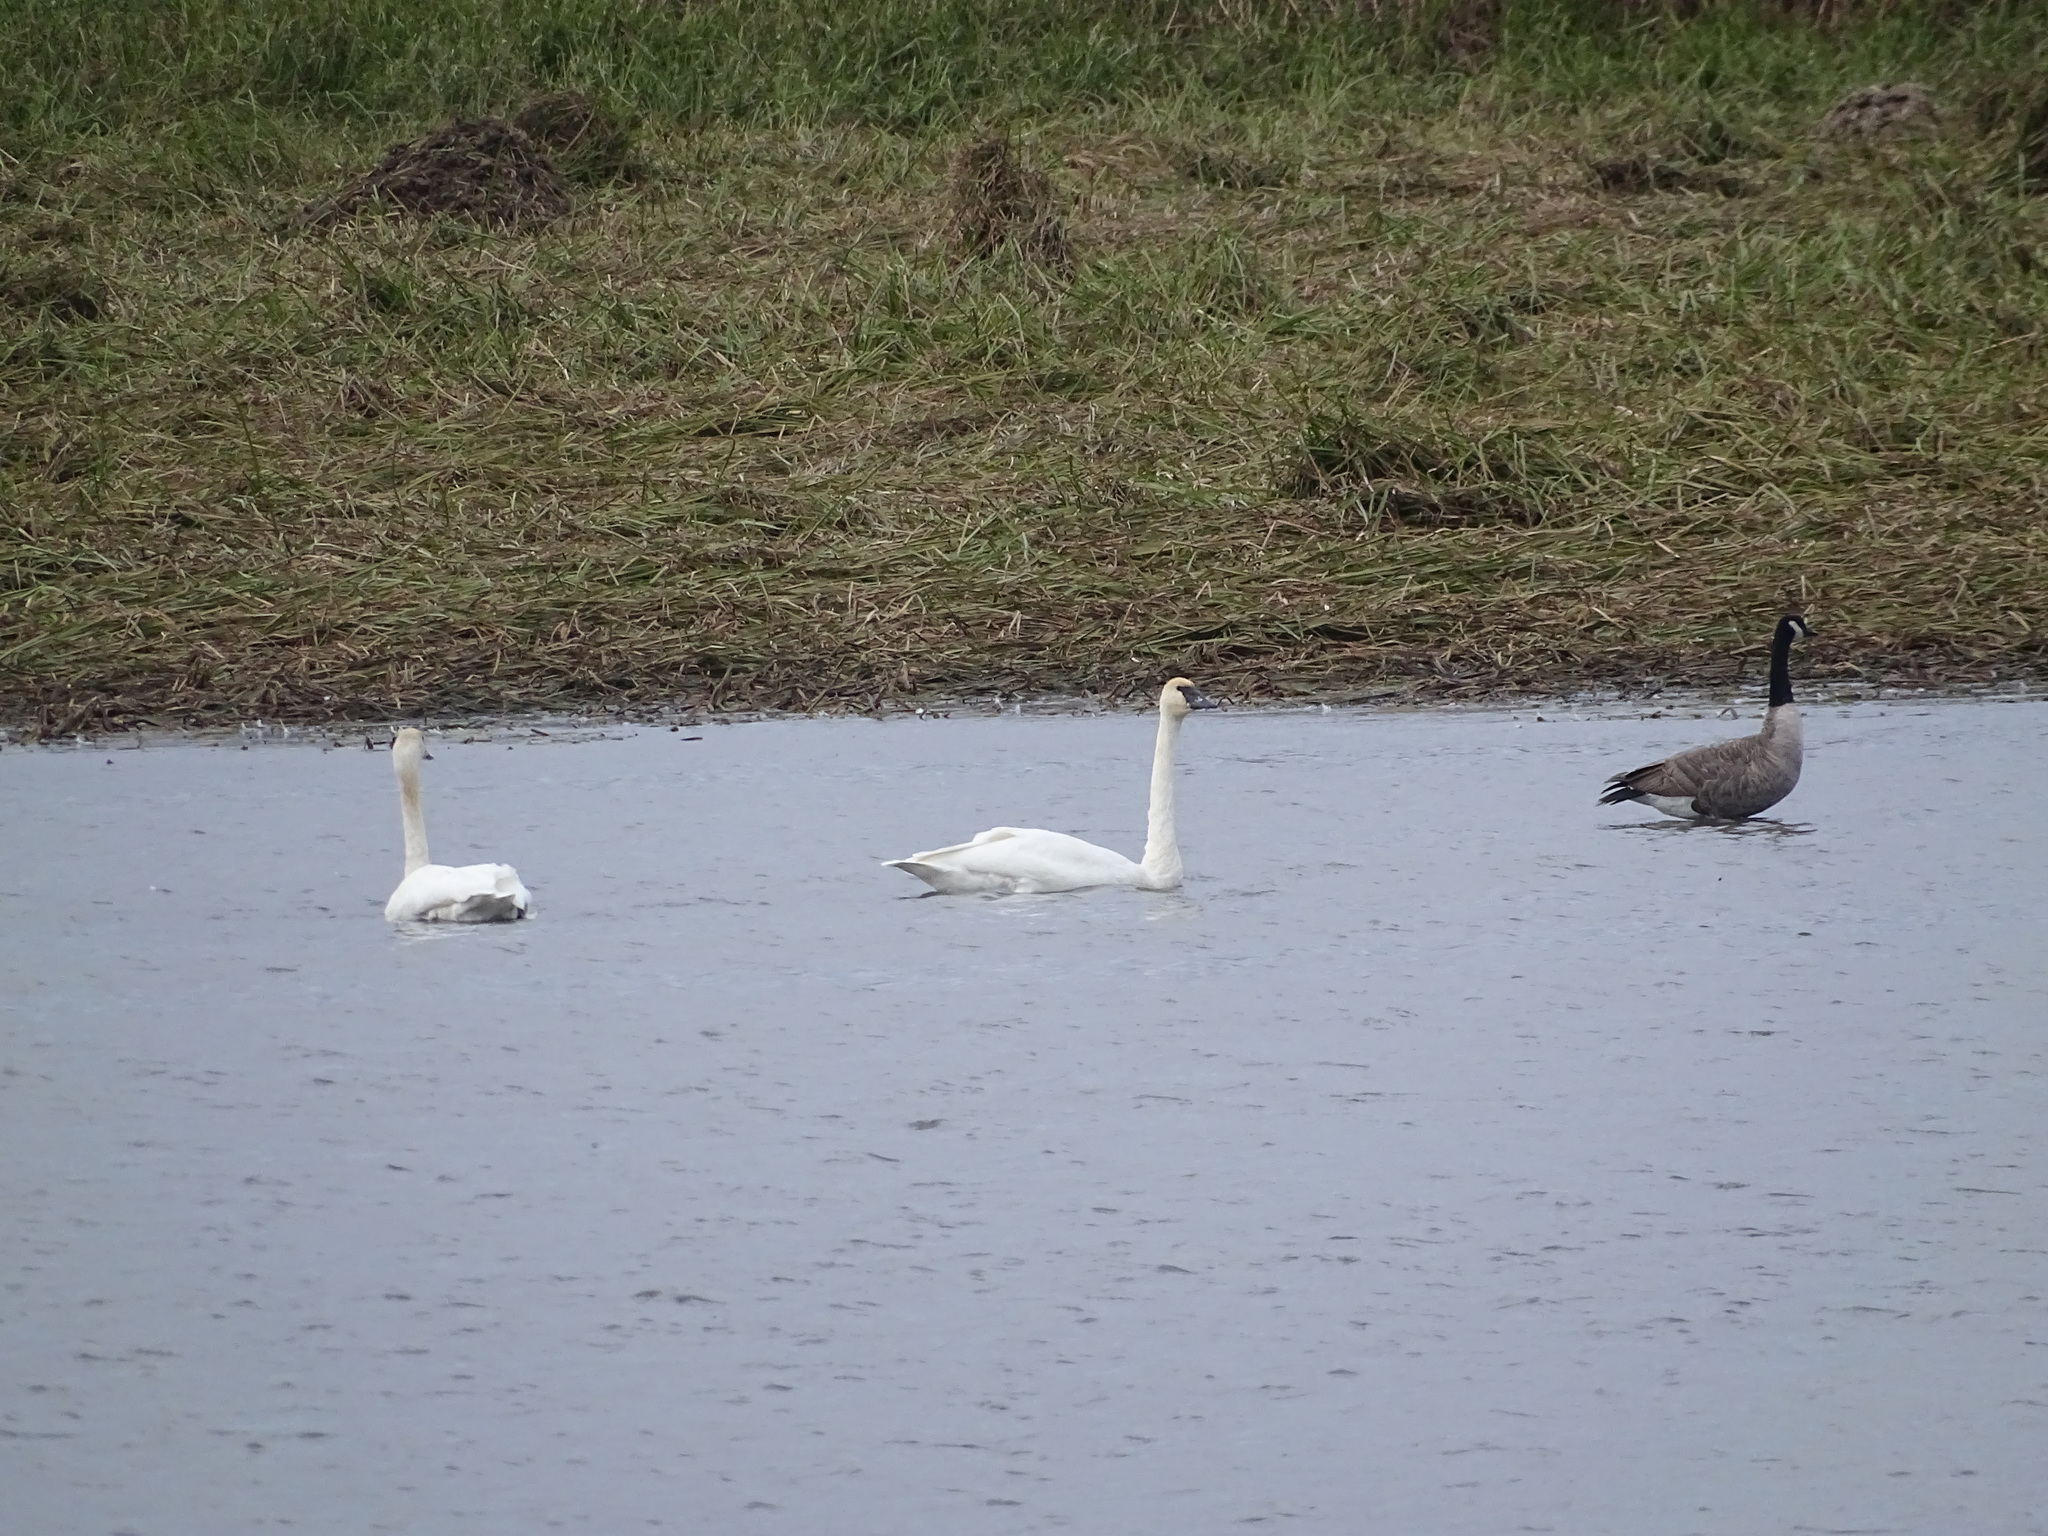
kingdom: Animalia
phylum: Chordata
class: Aves
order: Anseriformes
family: Anatidae
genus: Cygnus
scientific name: Cygnus buccinator
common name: Trumpeter swan
